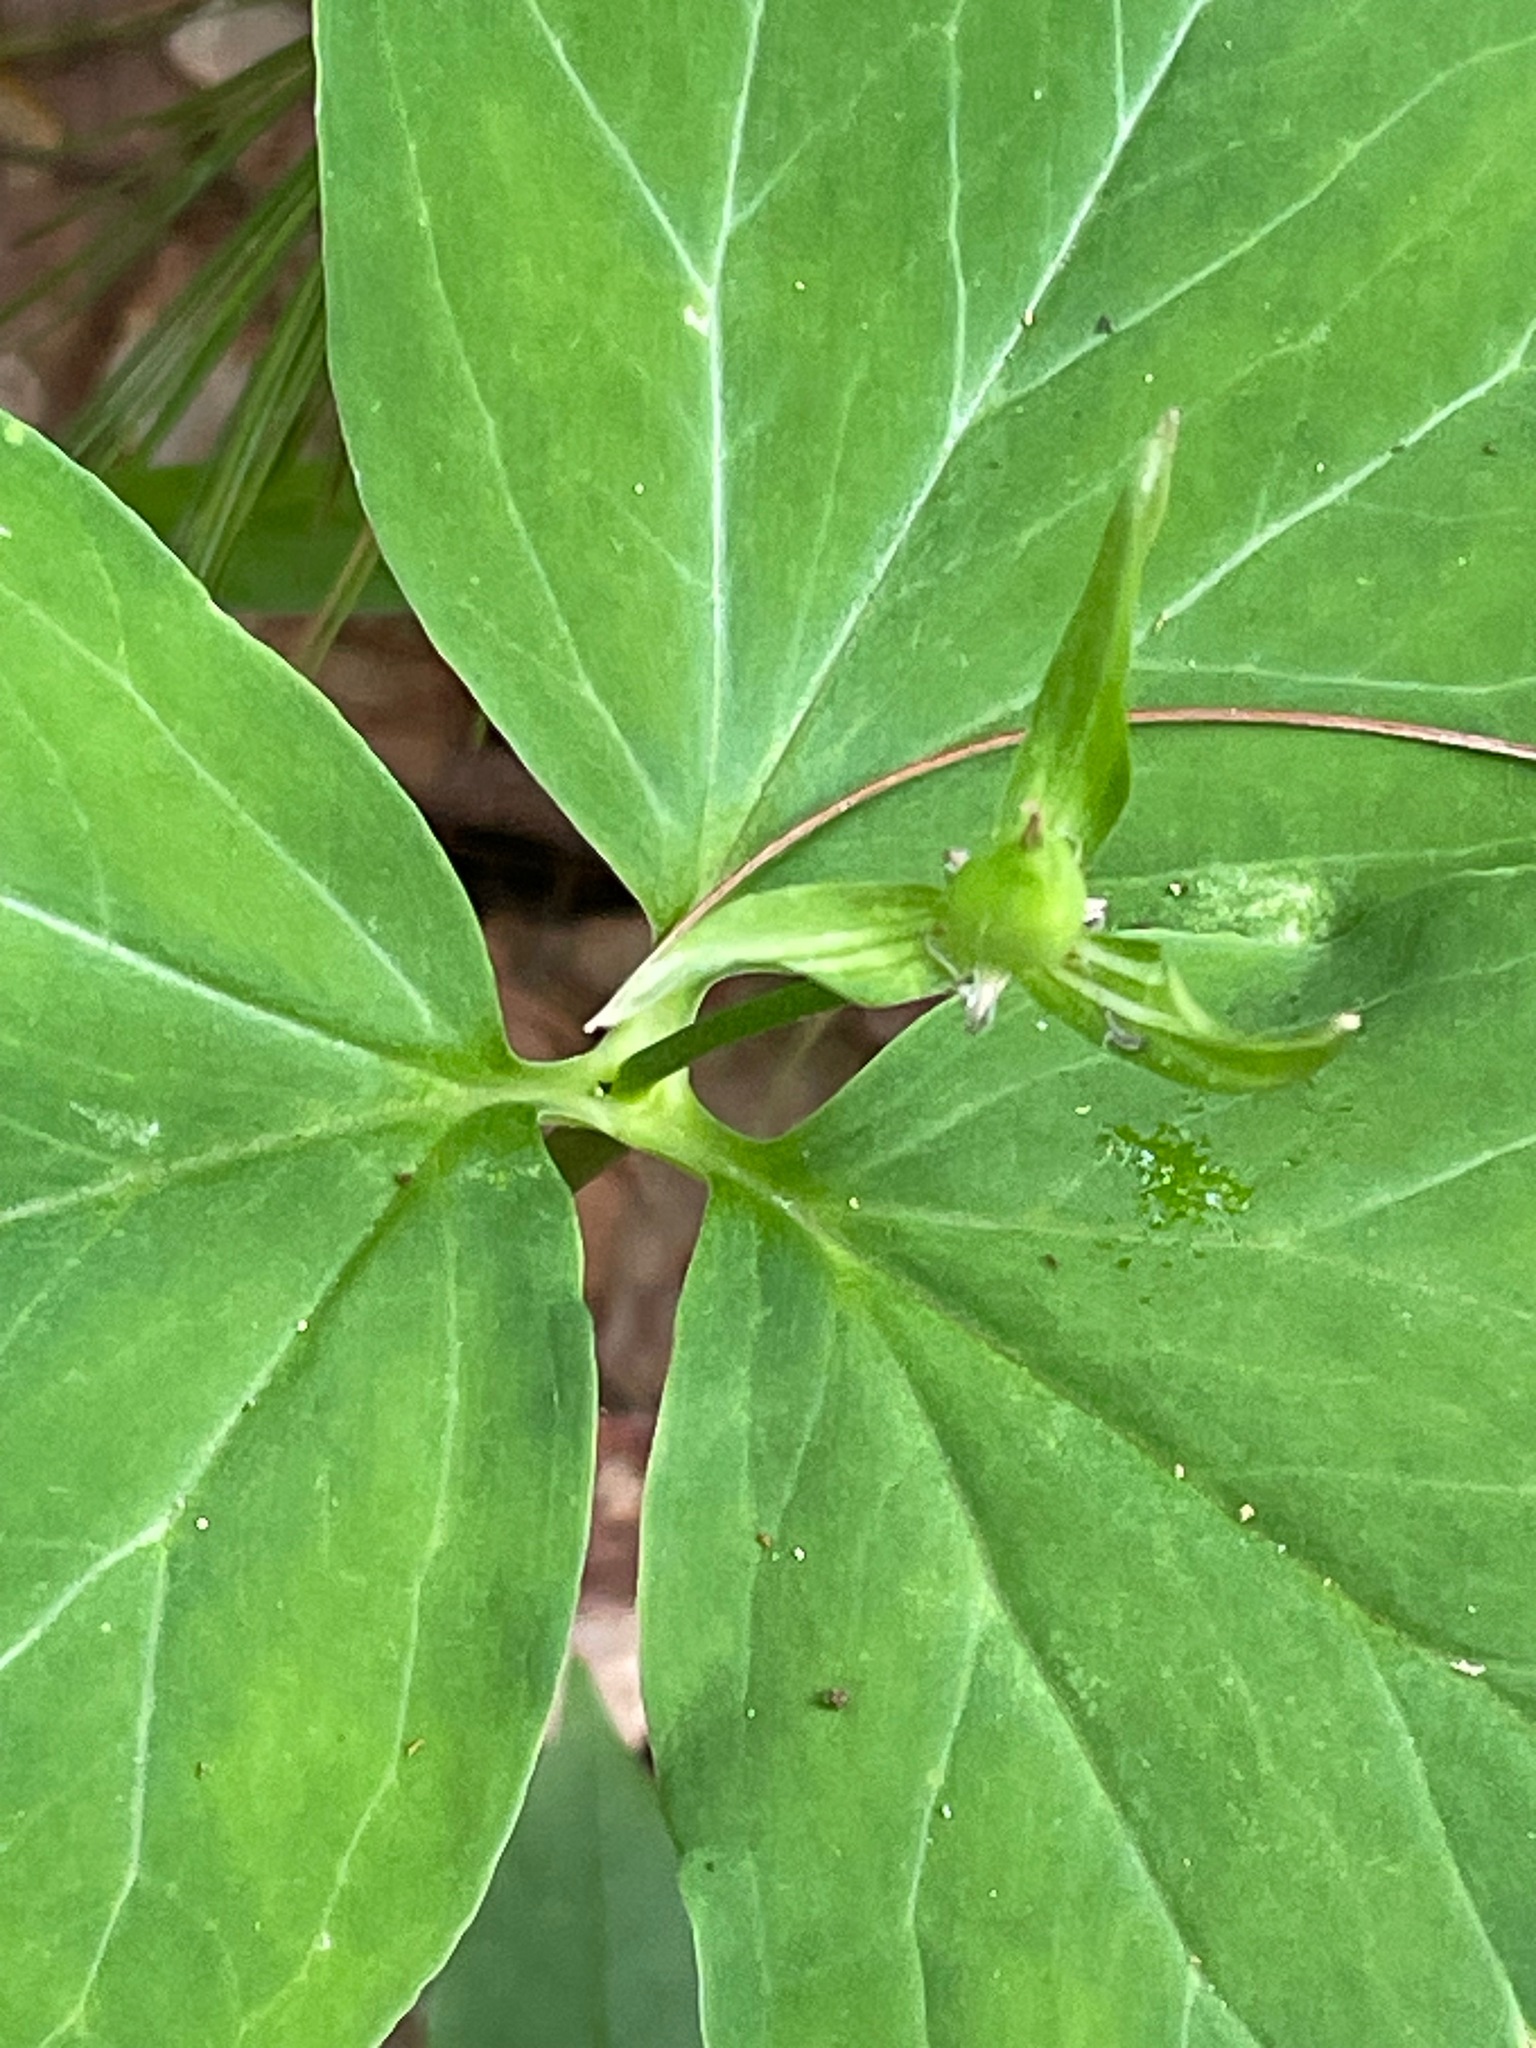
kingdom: Plantae
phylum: Tracheophyta
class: Liliopsida
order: Liliales
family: Melanthiaceae
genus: Trillium
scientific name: Trillium undulatum
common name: Paint trillium
